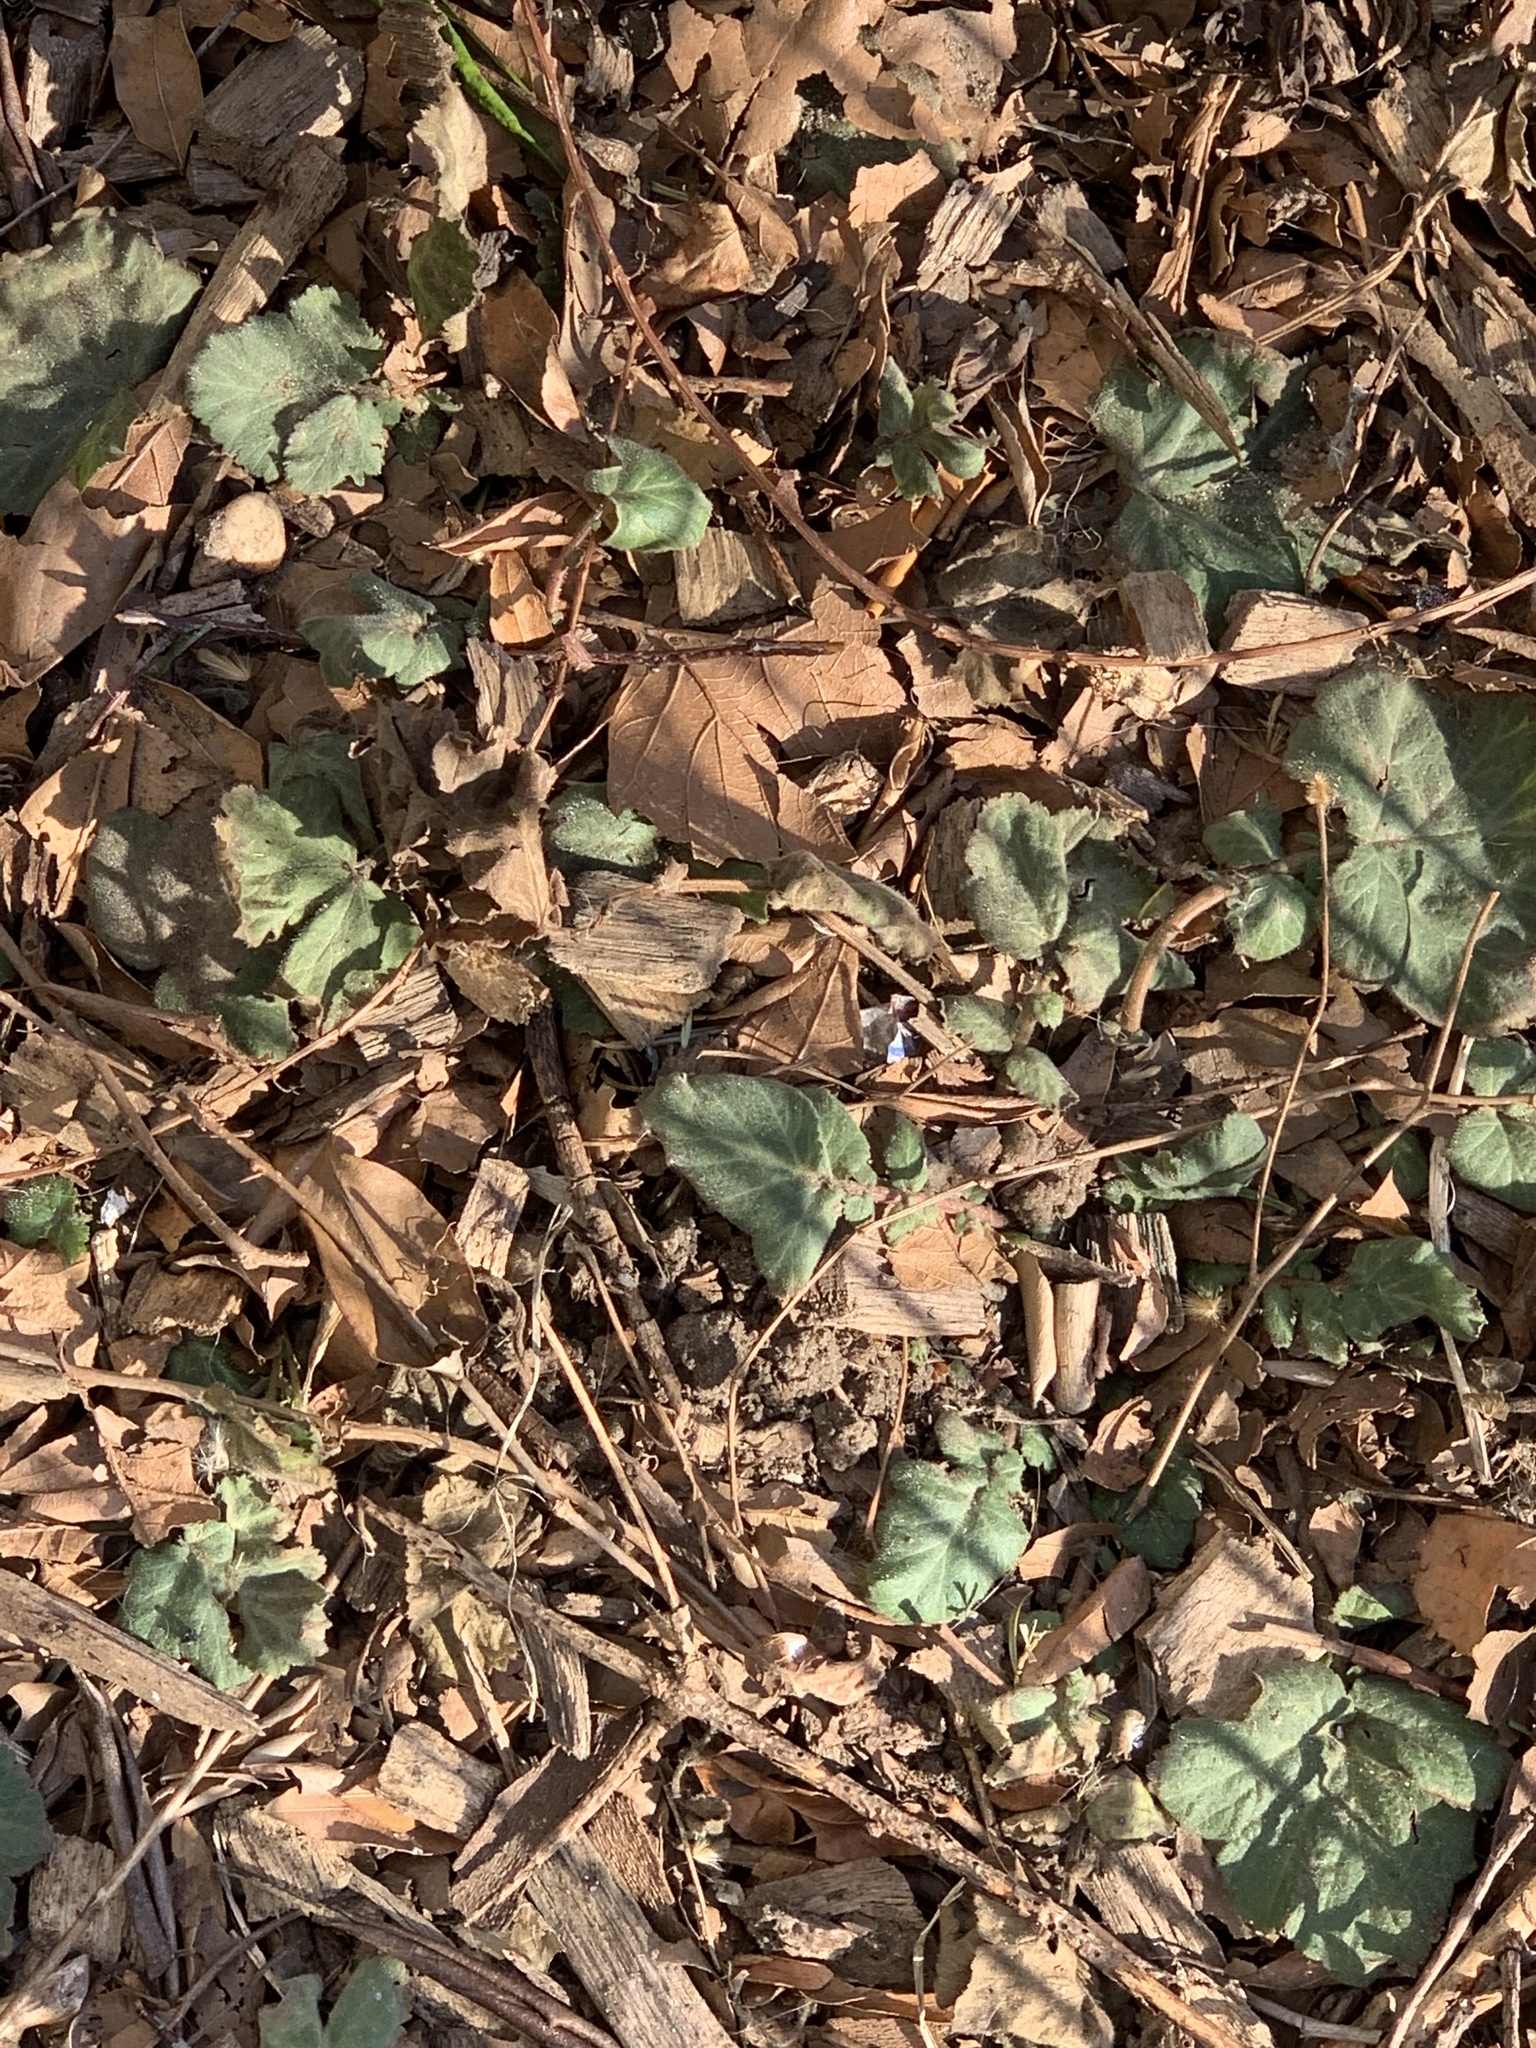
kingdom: Plantae
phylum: Tracheophyta
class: Magnoliopsida
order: Rosales
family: Rosaceae
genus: Geum
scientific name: Geum canadense
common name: White avens
